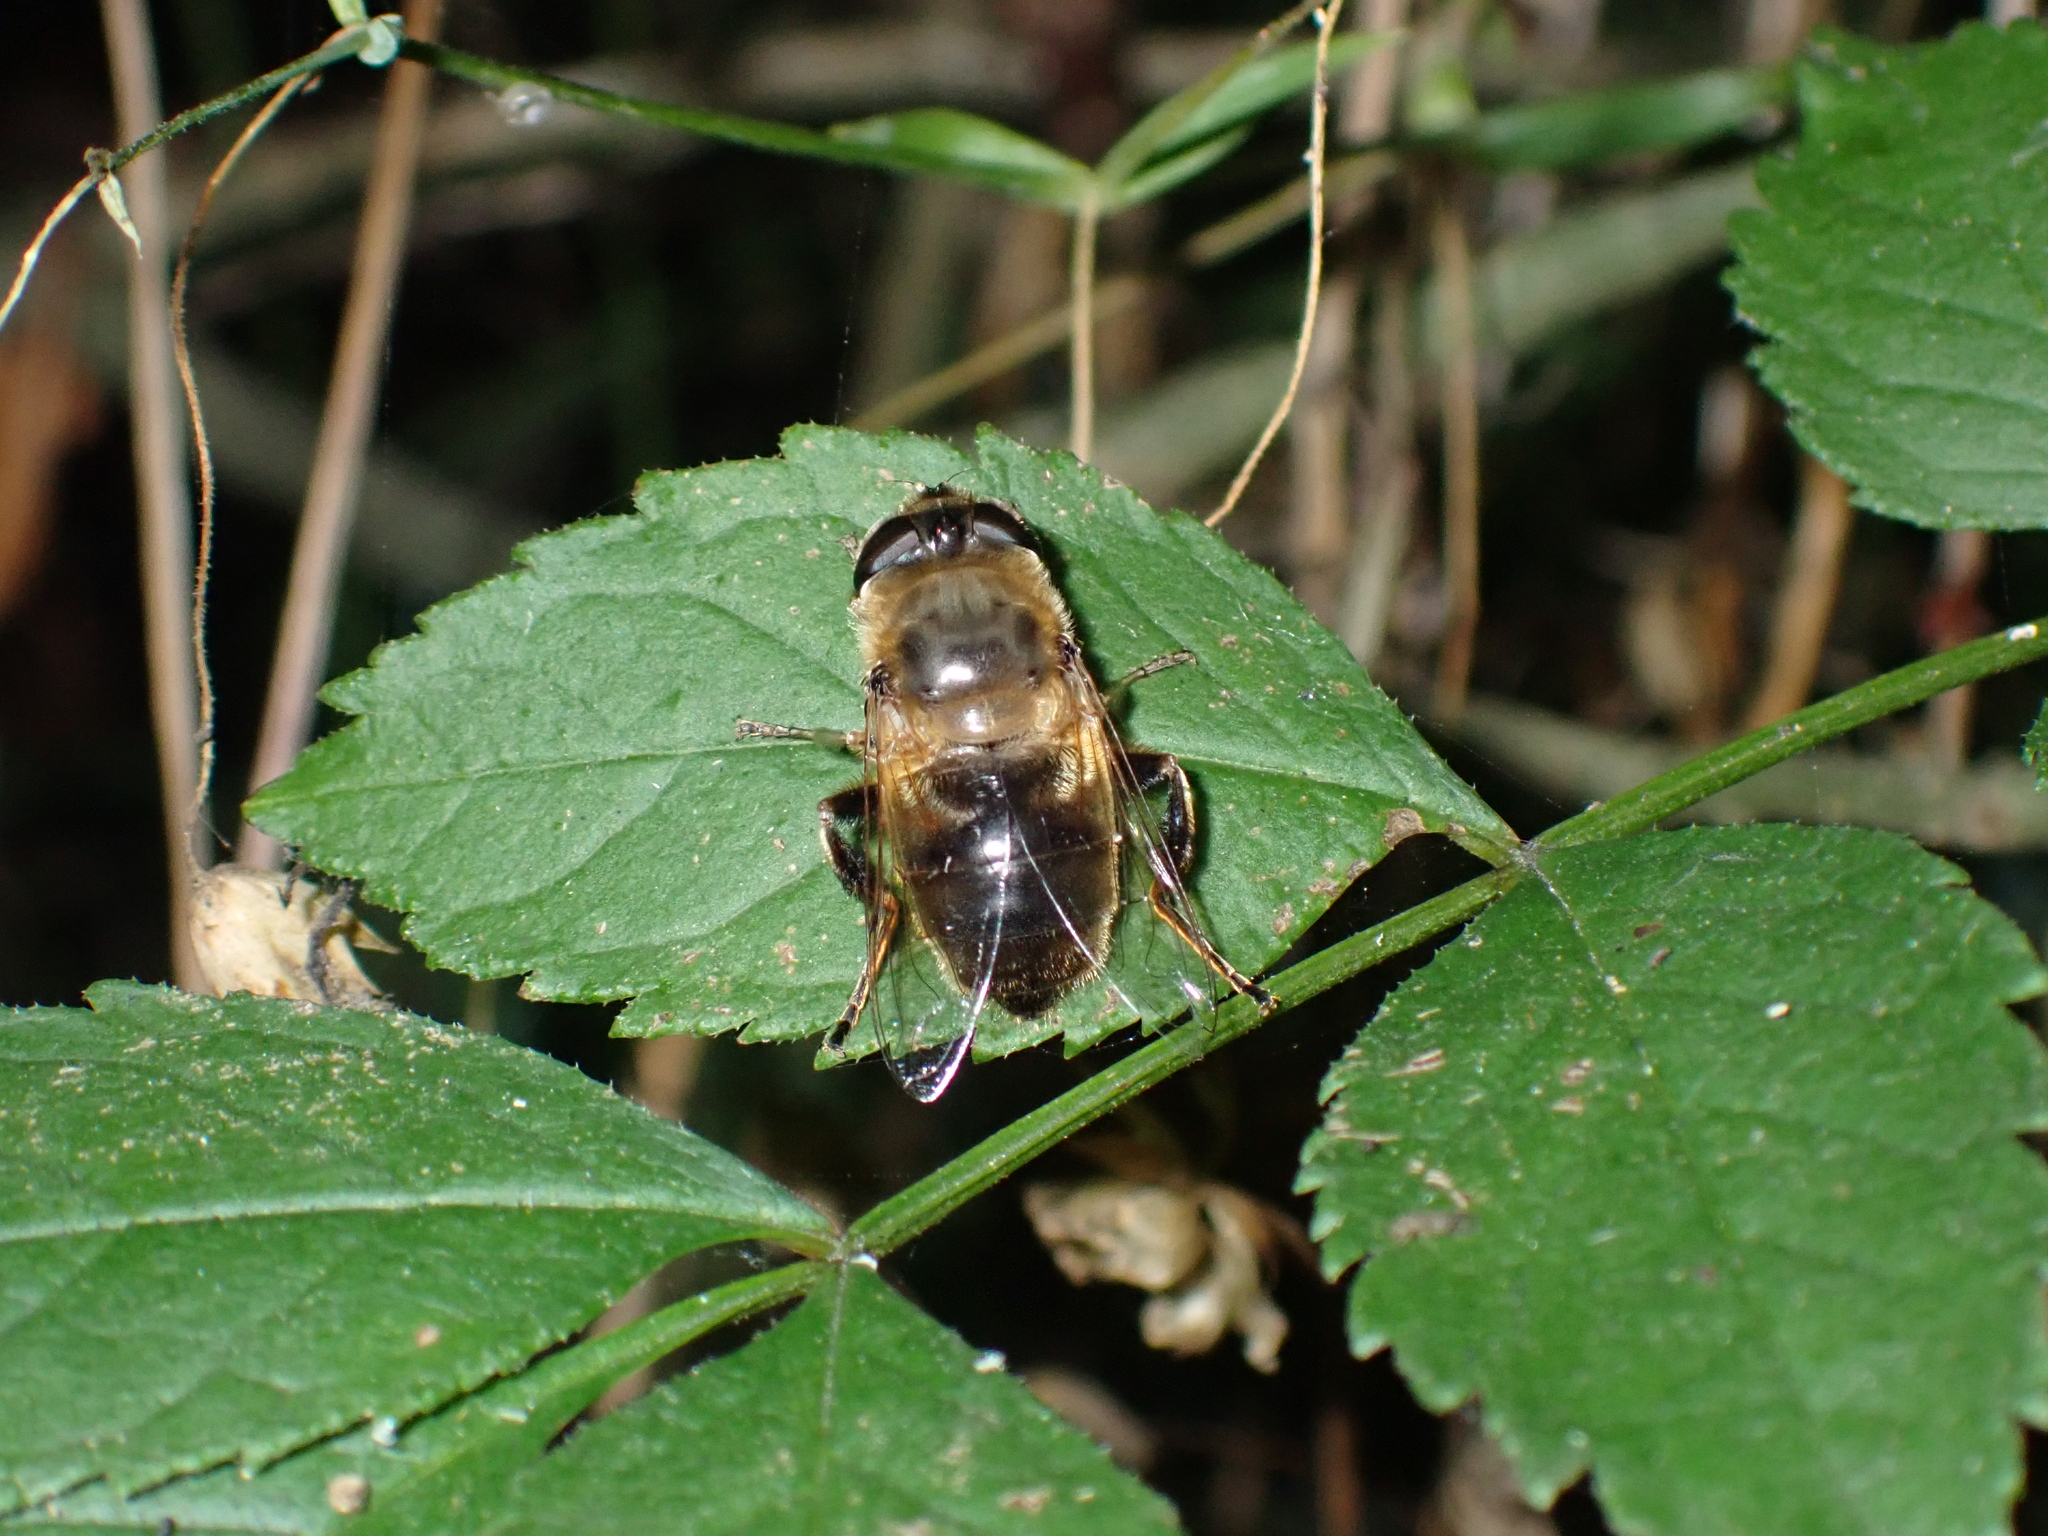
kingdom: Animalia
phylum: Arthropoda
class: Insecta
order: Diptera
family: Syrphidae
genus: Eristalis
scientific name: Eristalis tenax
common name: Drone fly
